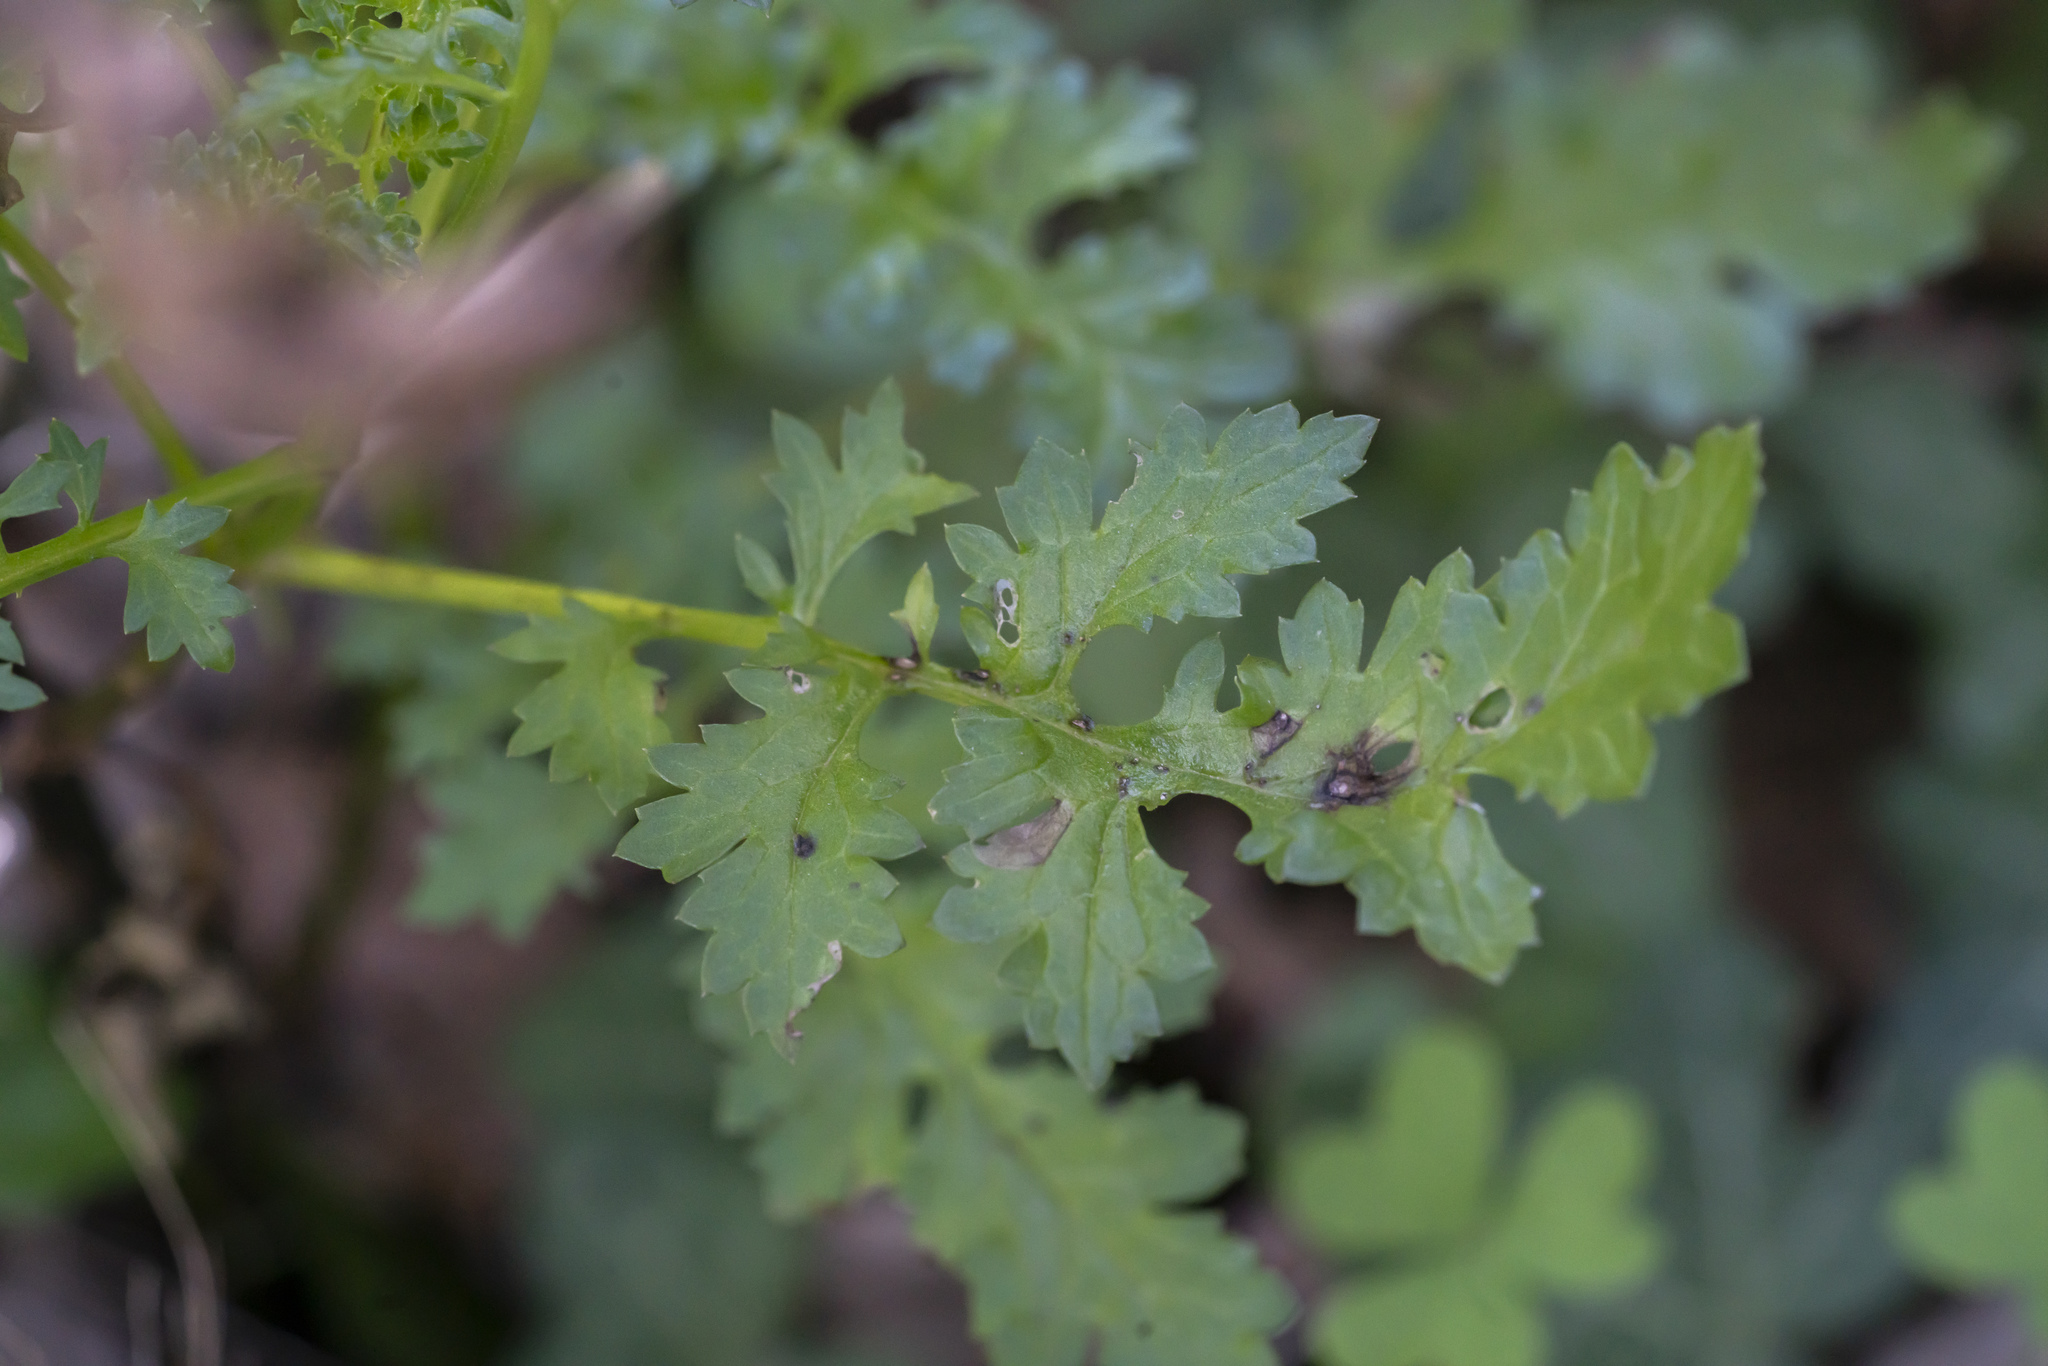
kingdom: Plantae
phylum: Tracheophyta
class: Magnoliopsida
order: Lamiales
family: Scrophulariaceae
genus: Scrophularia
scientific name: Scrophularia lucida
